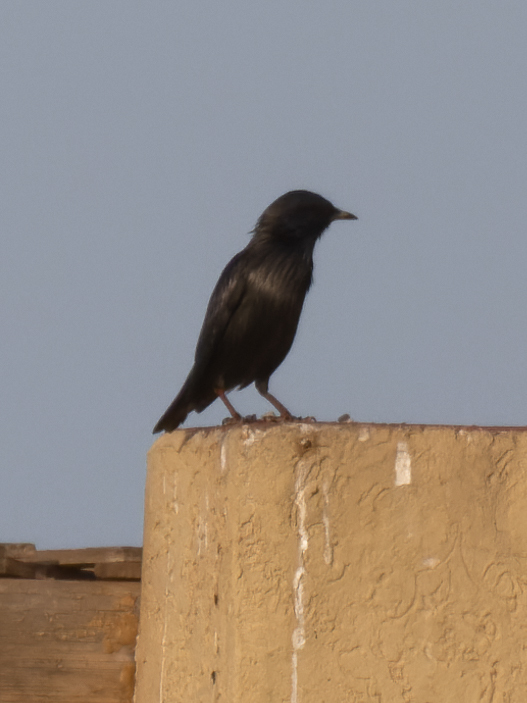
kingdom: Animalia
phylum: Chordata
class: Aves
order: Passeriformes
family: Sturnidae
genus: Sturnus
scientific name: Sturnus unicolor
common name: Spotless starling
